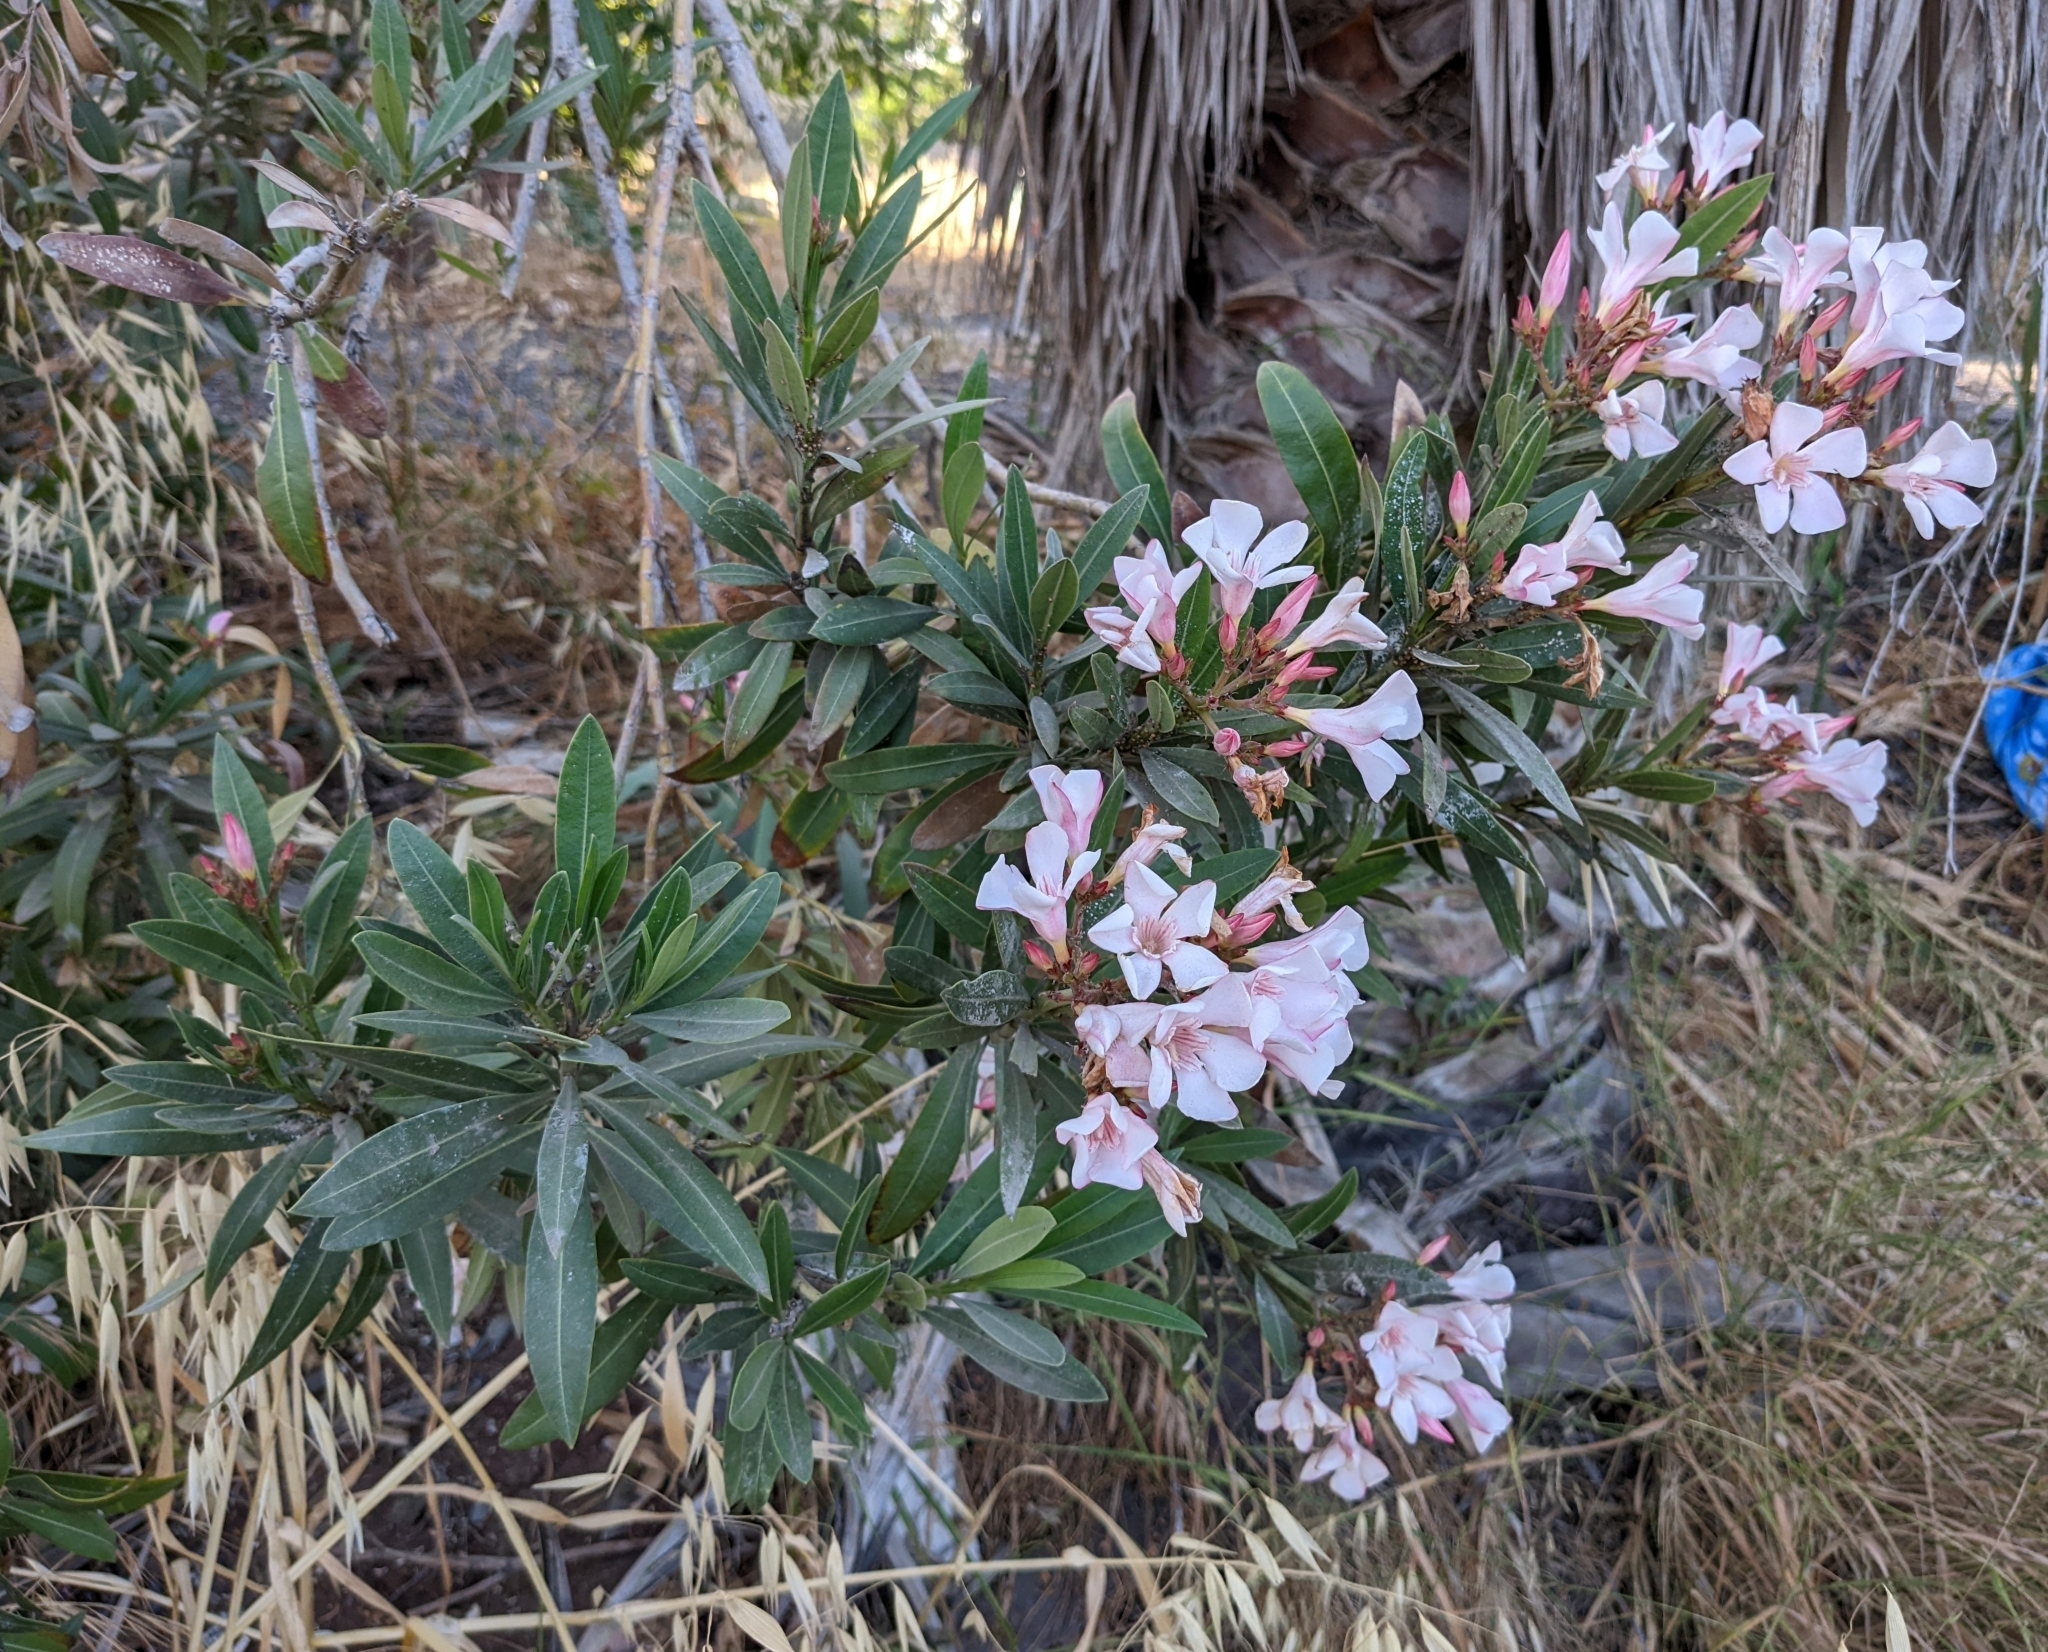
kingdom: Plantae
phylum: Tracheophyta
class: Magnoliopsida
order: Gentianales
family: Apocynaceae
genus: Nerium
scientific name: Nerium oleander
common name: Oleander
